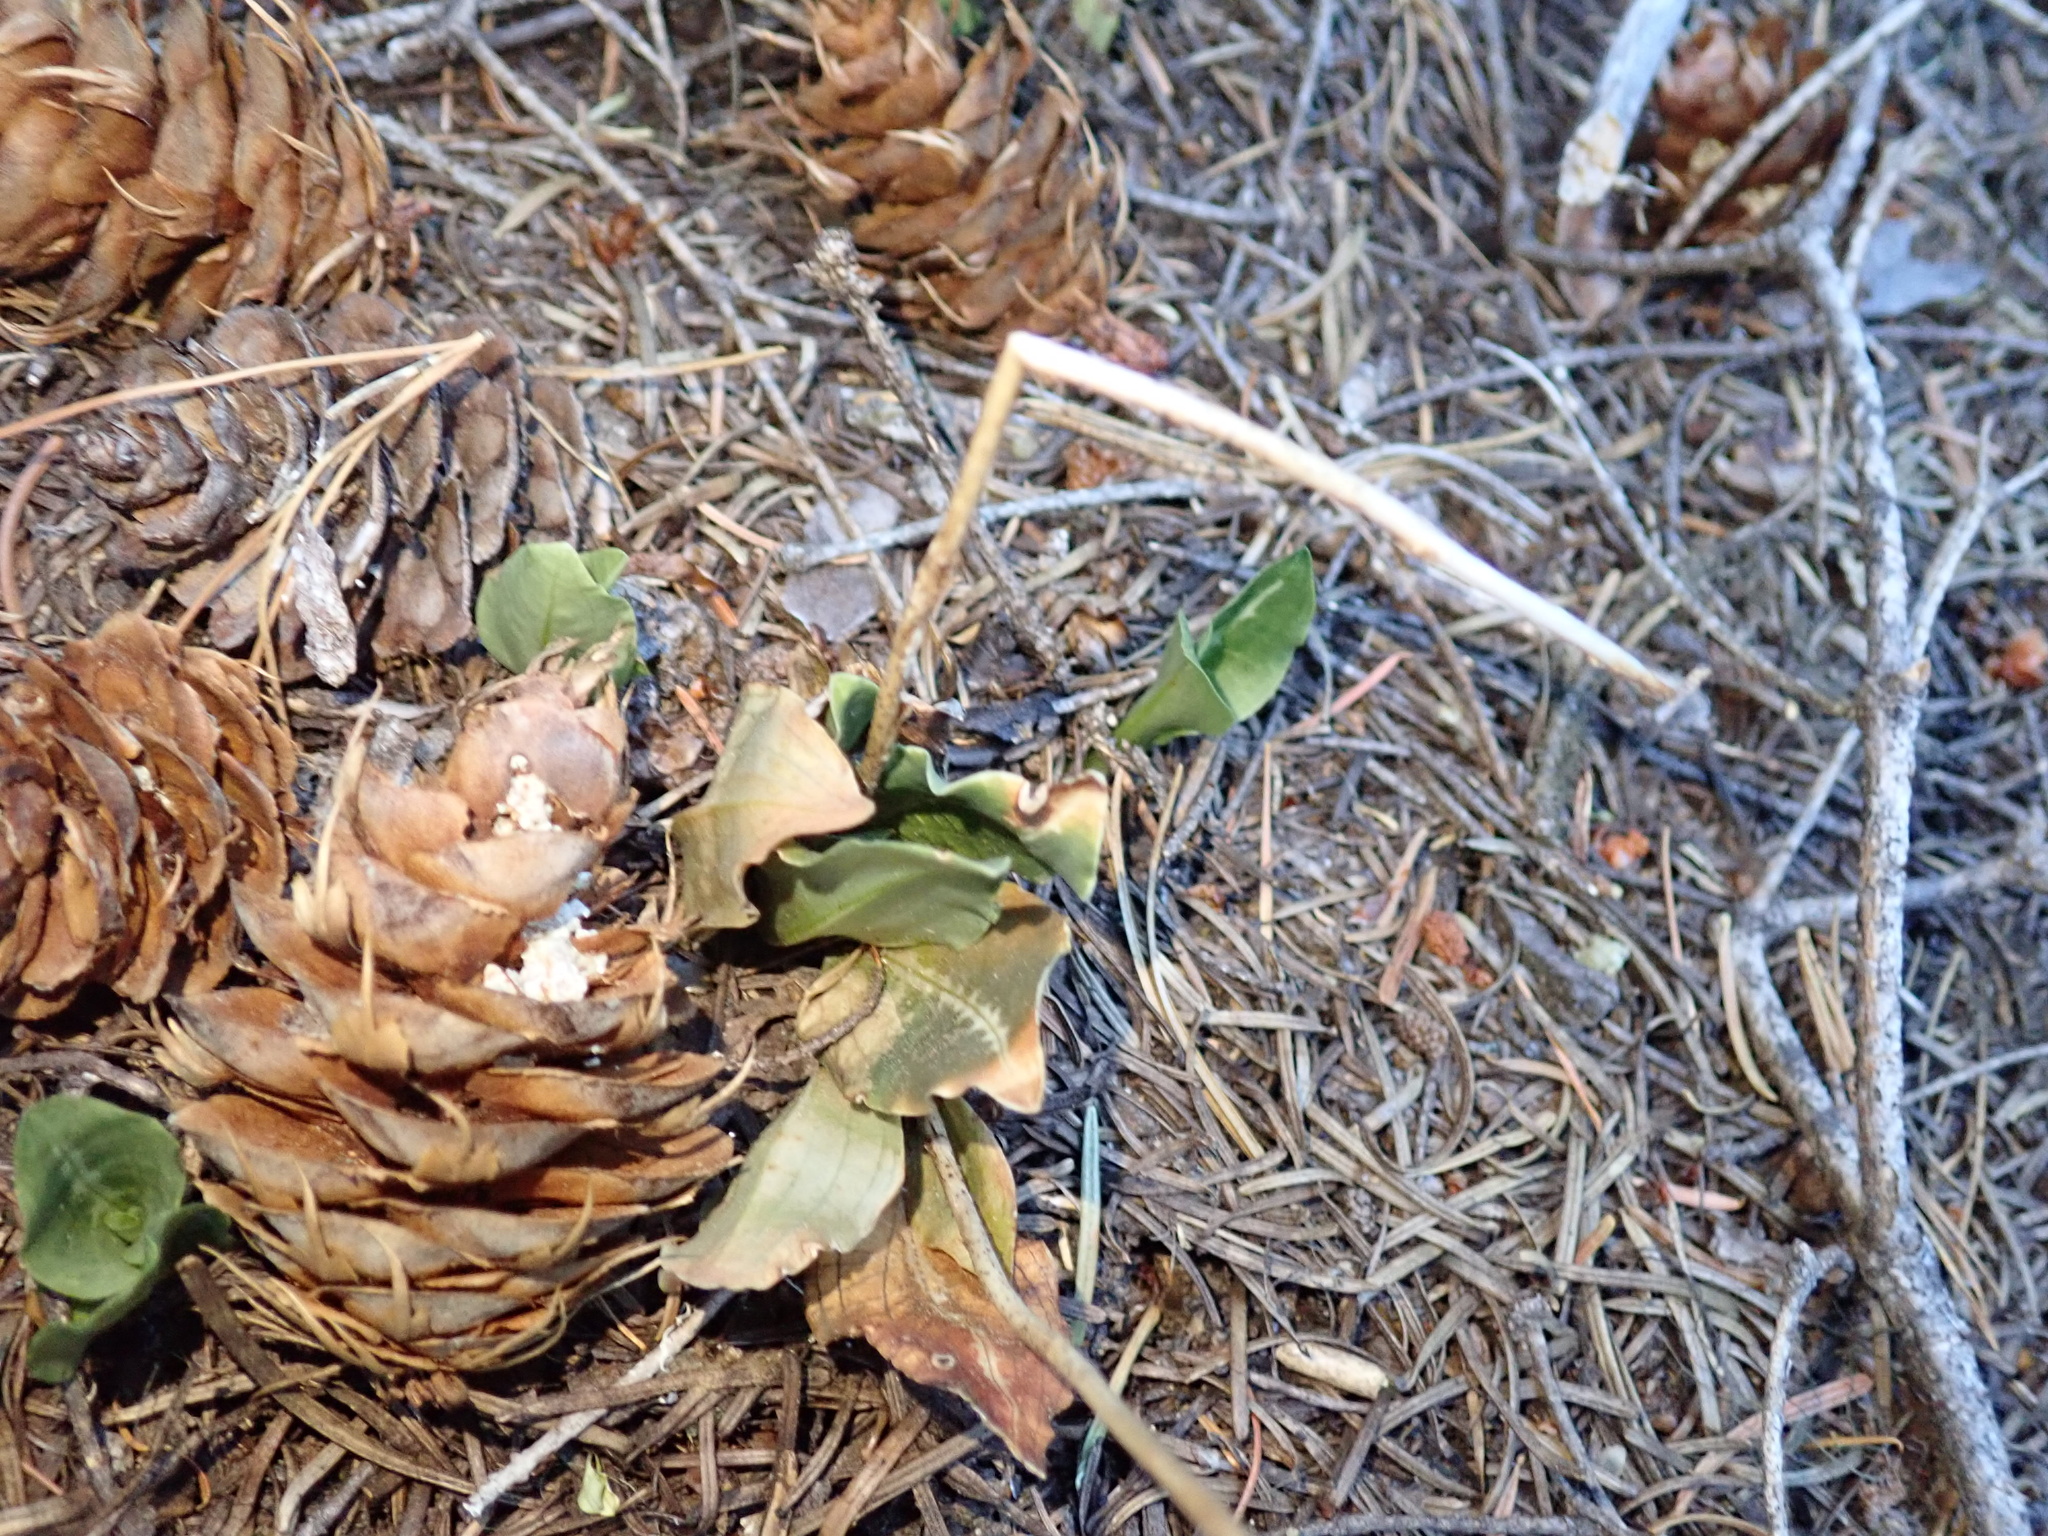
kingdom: Plantae
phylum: Tracheophyta
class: Liliopsida
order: Asparagales
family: Orchidaceae
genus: Goodyera
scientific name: Goodyera oblongifolia
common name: Giant rattlesnake-plantain
